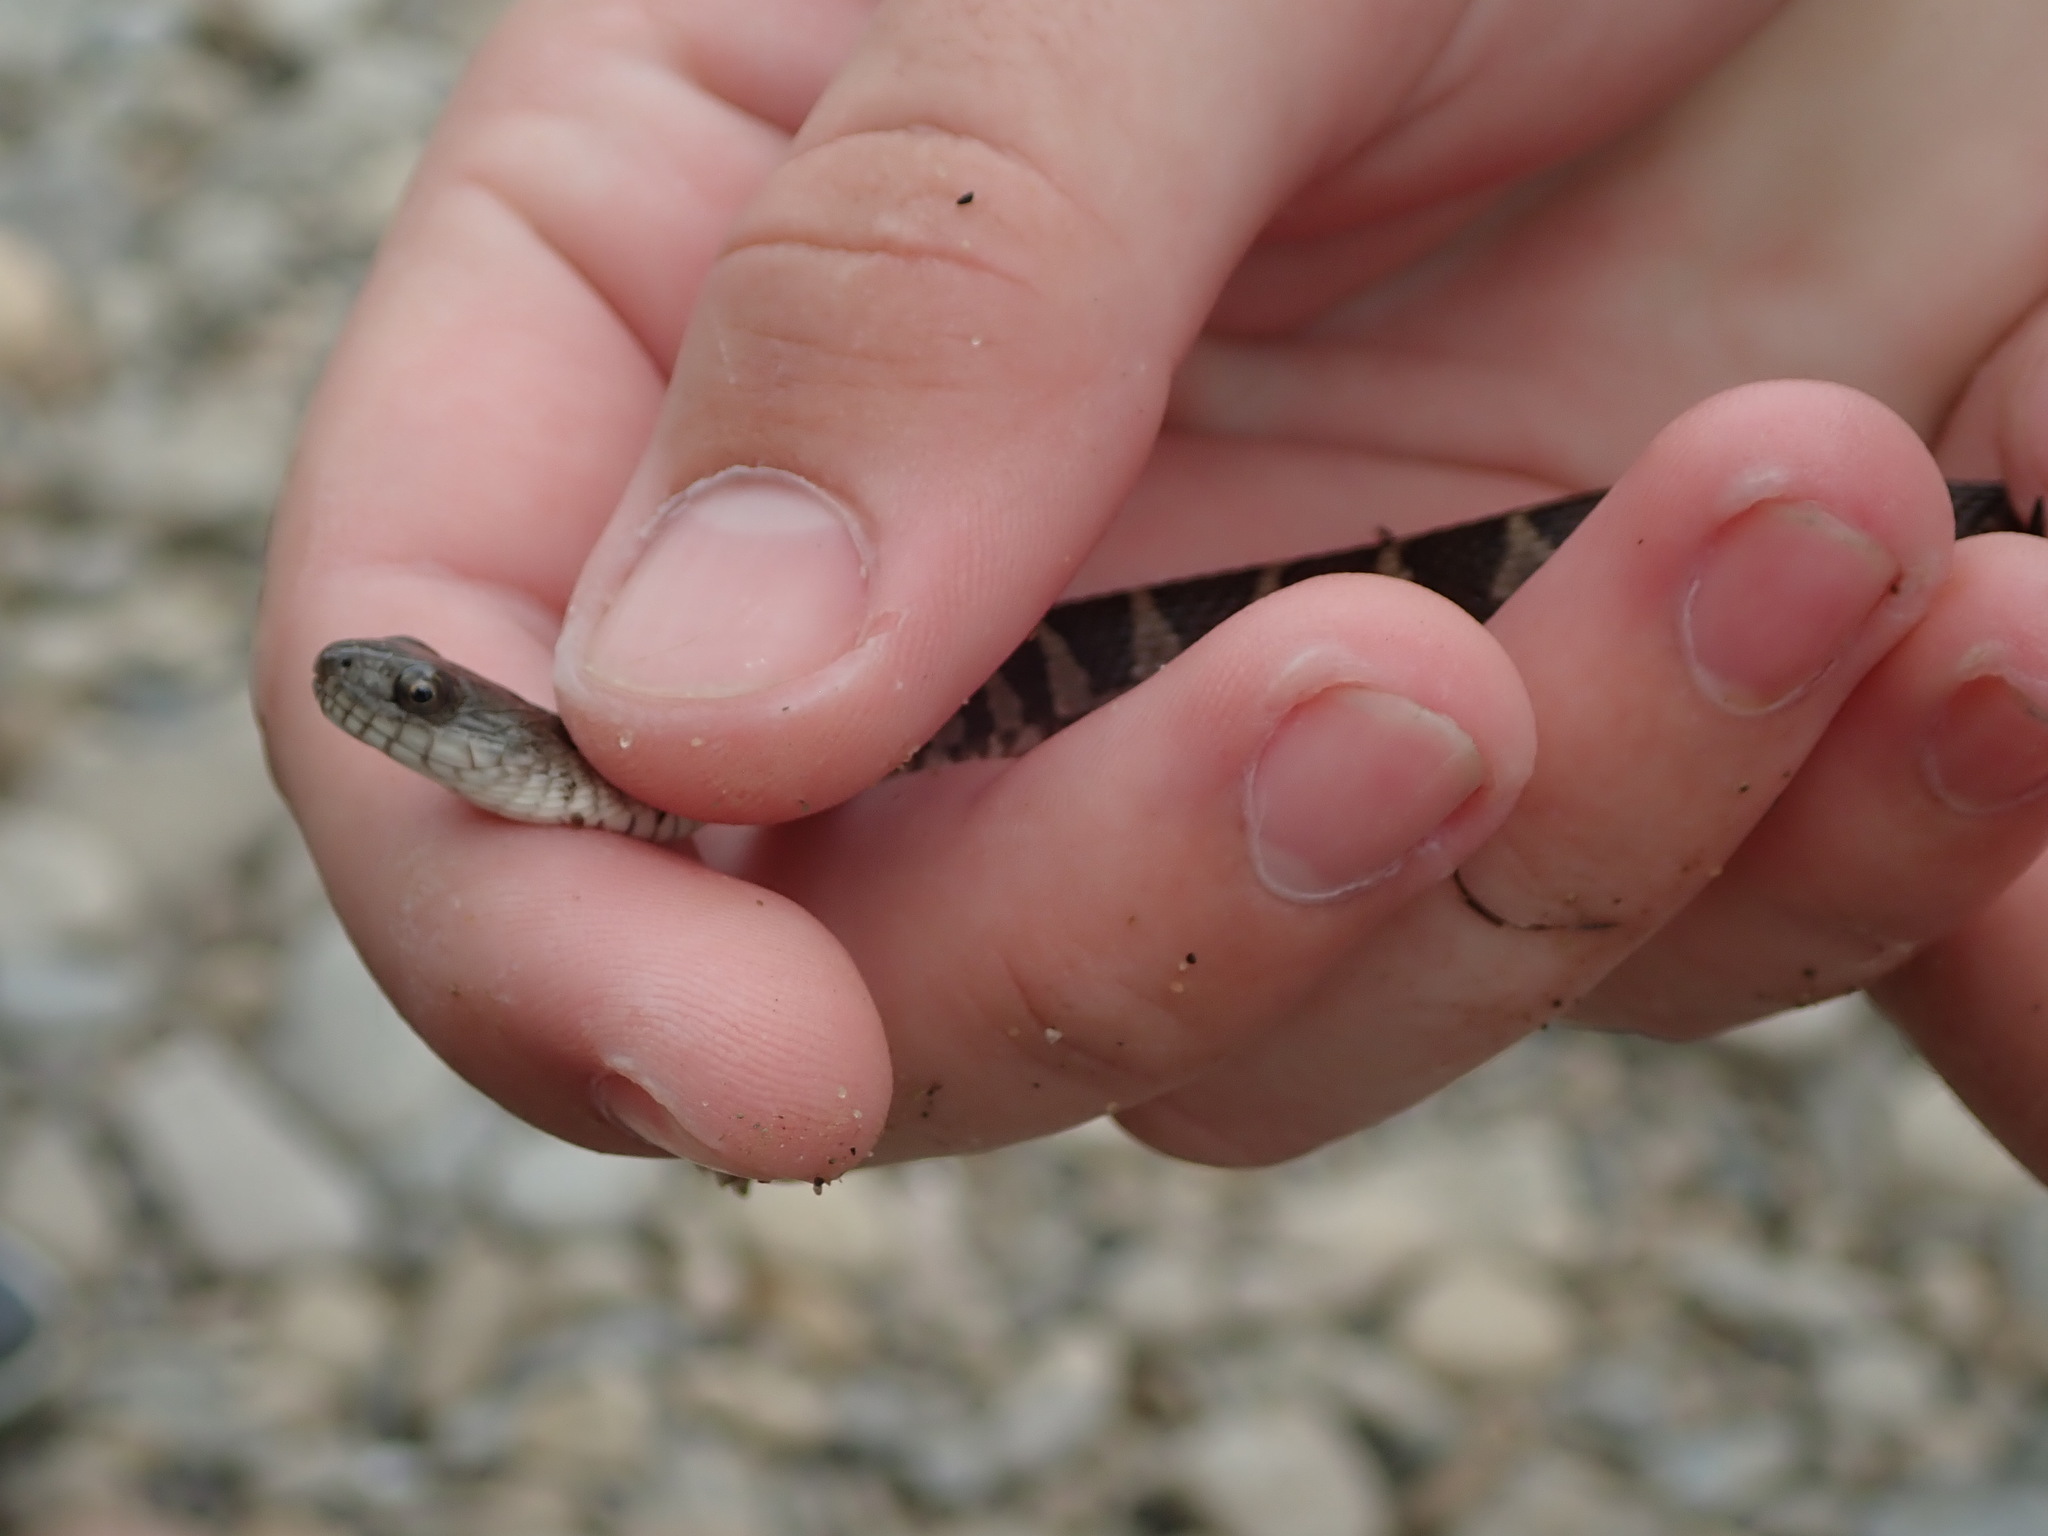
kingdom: Animalia
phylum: Chordata
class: Squamata
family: Colubridae
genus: Nerodia
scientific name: Nerodia sipedon
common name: Northern water snake
